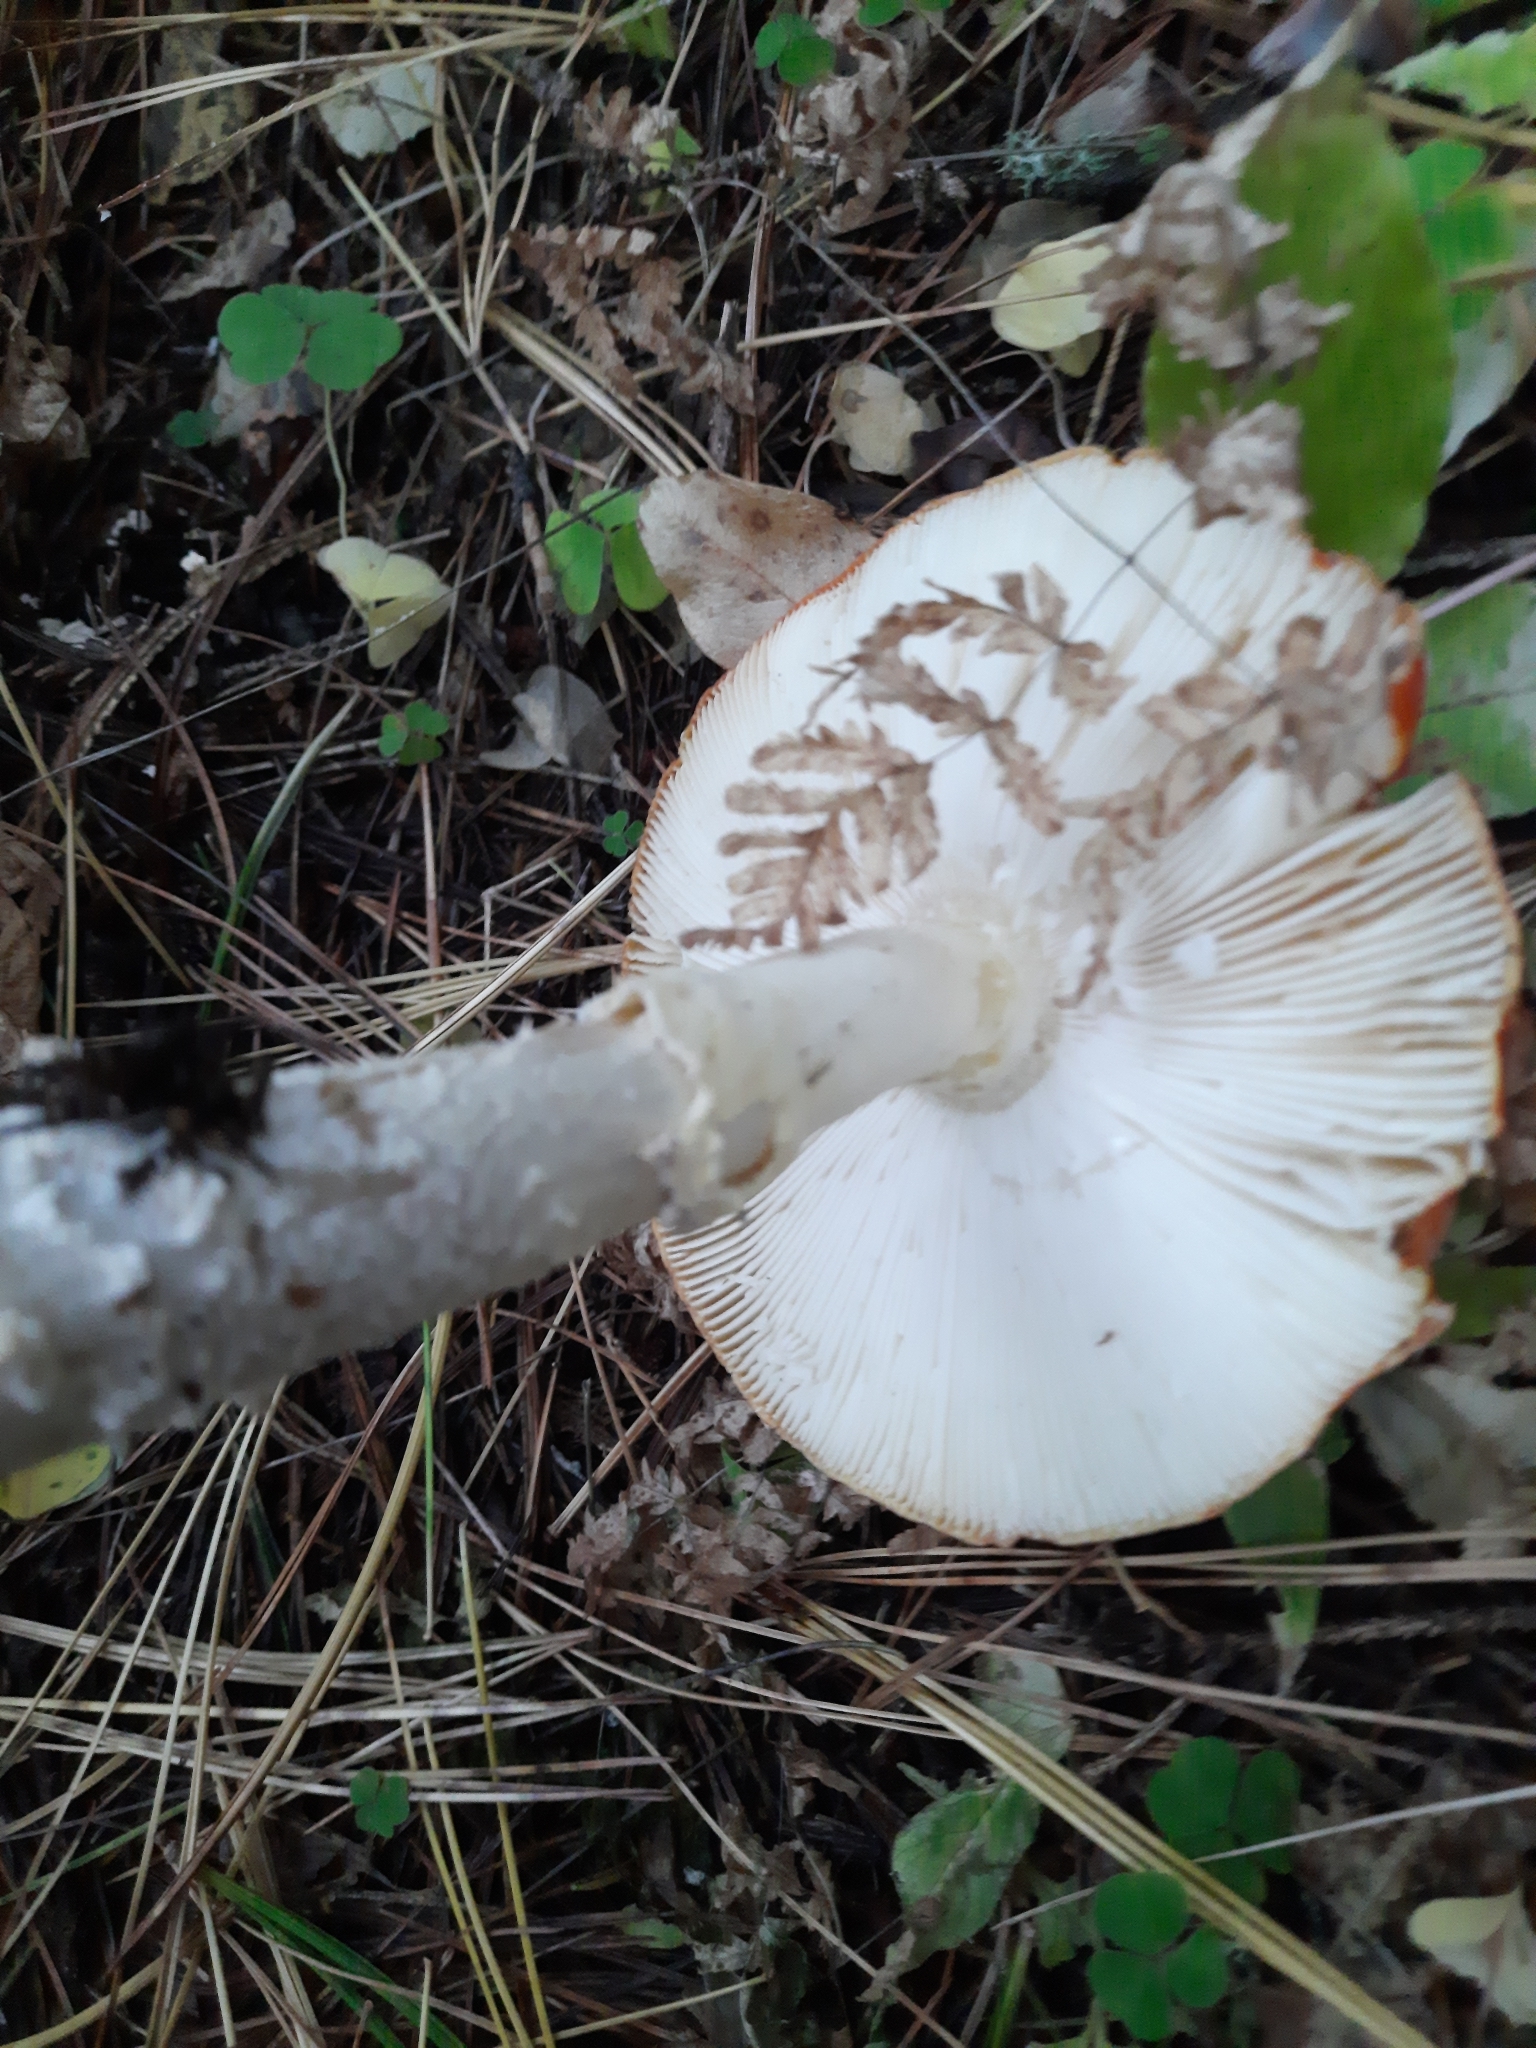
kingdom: Fungi
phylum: Basidiomycota
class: Agaricomycetes
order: Agaricales
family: Amanitaceae
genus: Amanita
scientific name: Amanita muscaria
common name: Fly agaric
